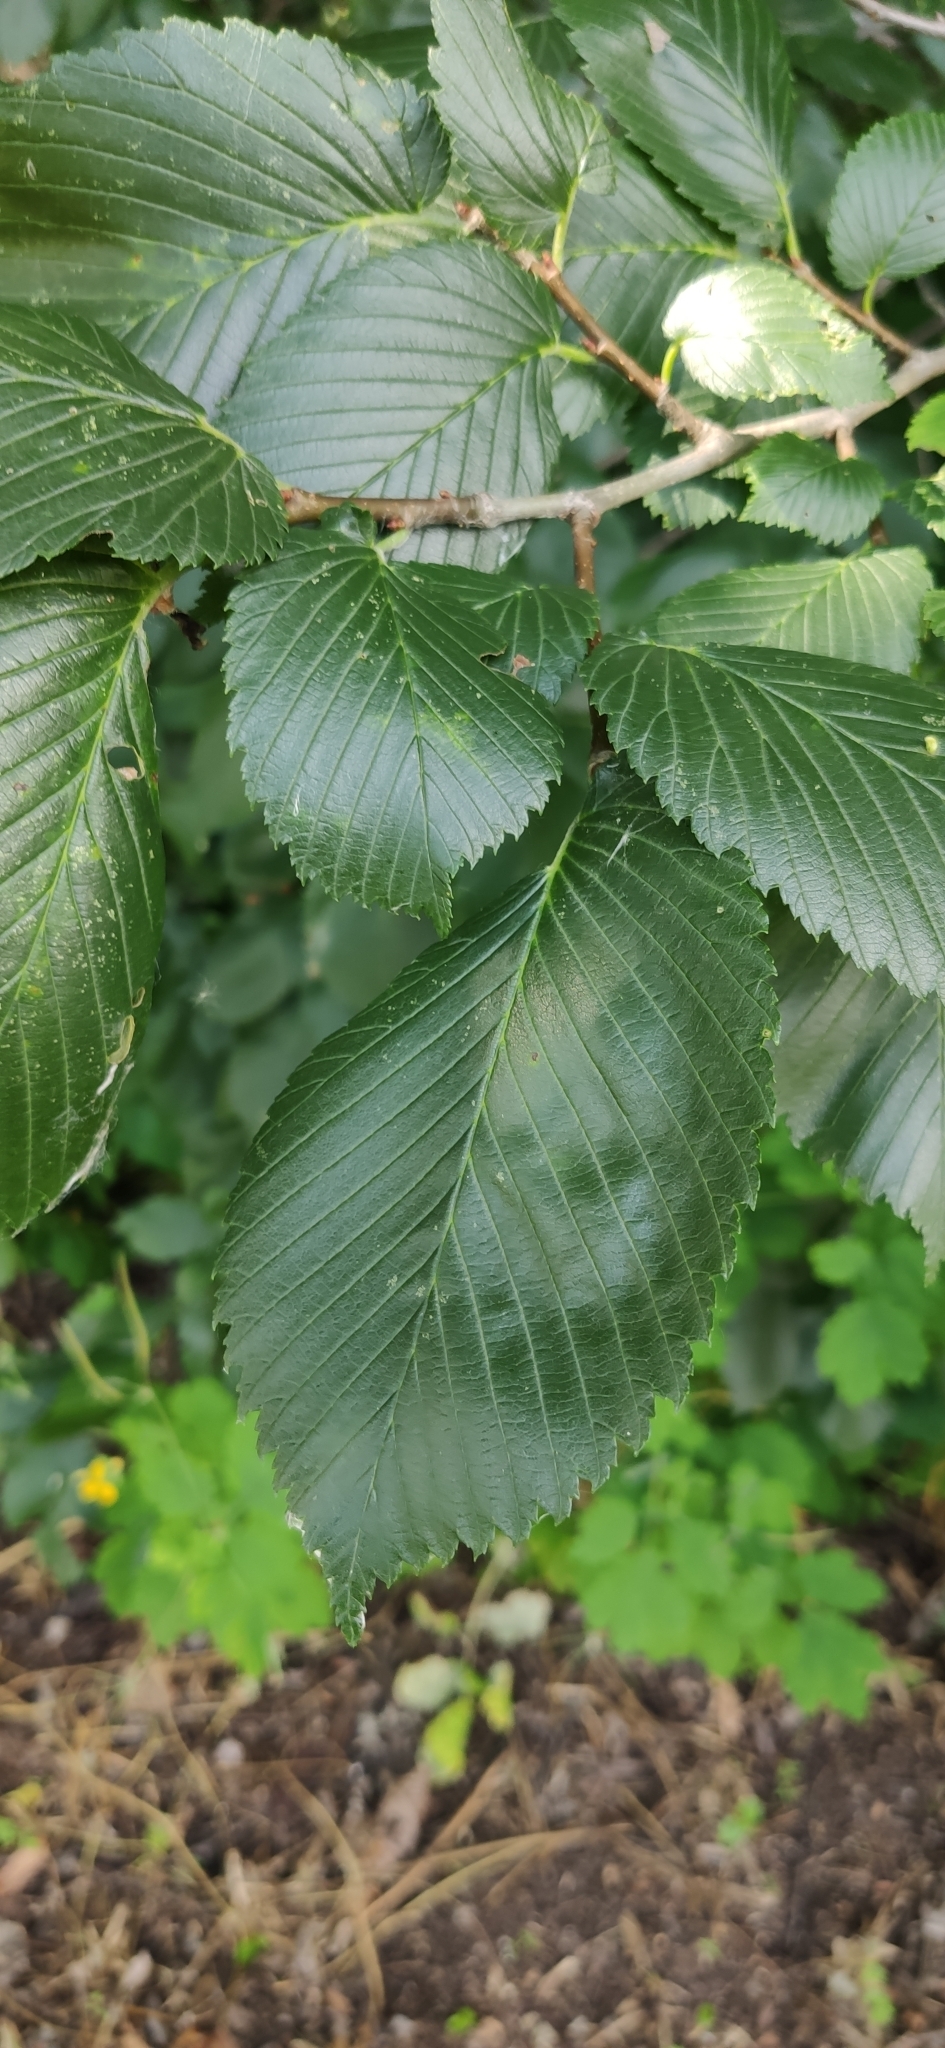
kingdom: Plantae
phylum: Tracheophyta
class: Magnoliopsida
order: Rosales
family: Ulmaceae
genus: Ulmus
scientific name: Ulmus laevis
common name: European white-elm
